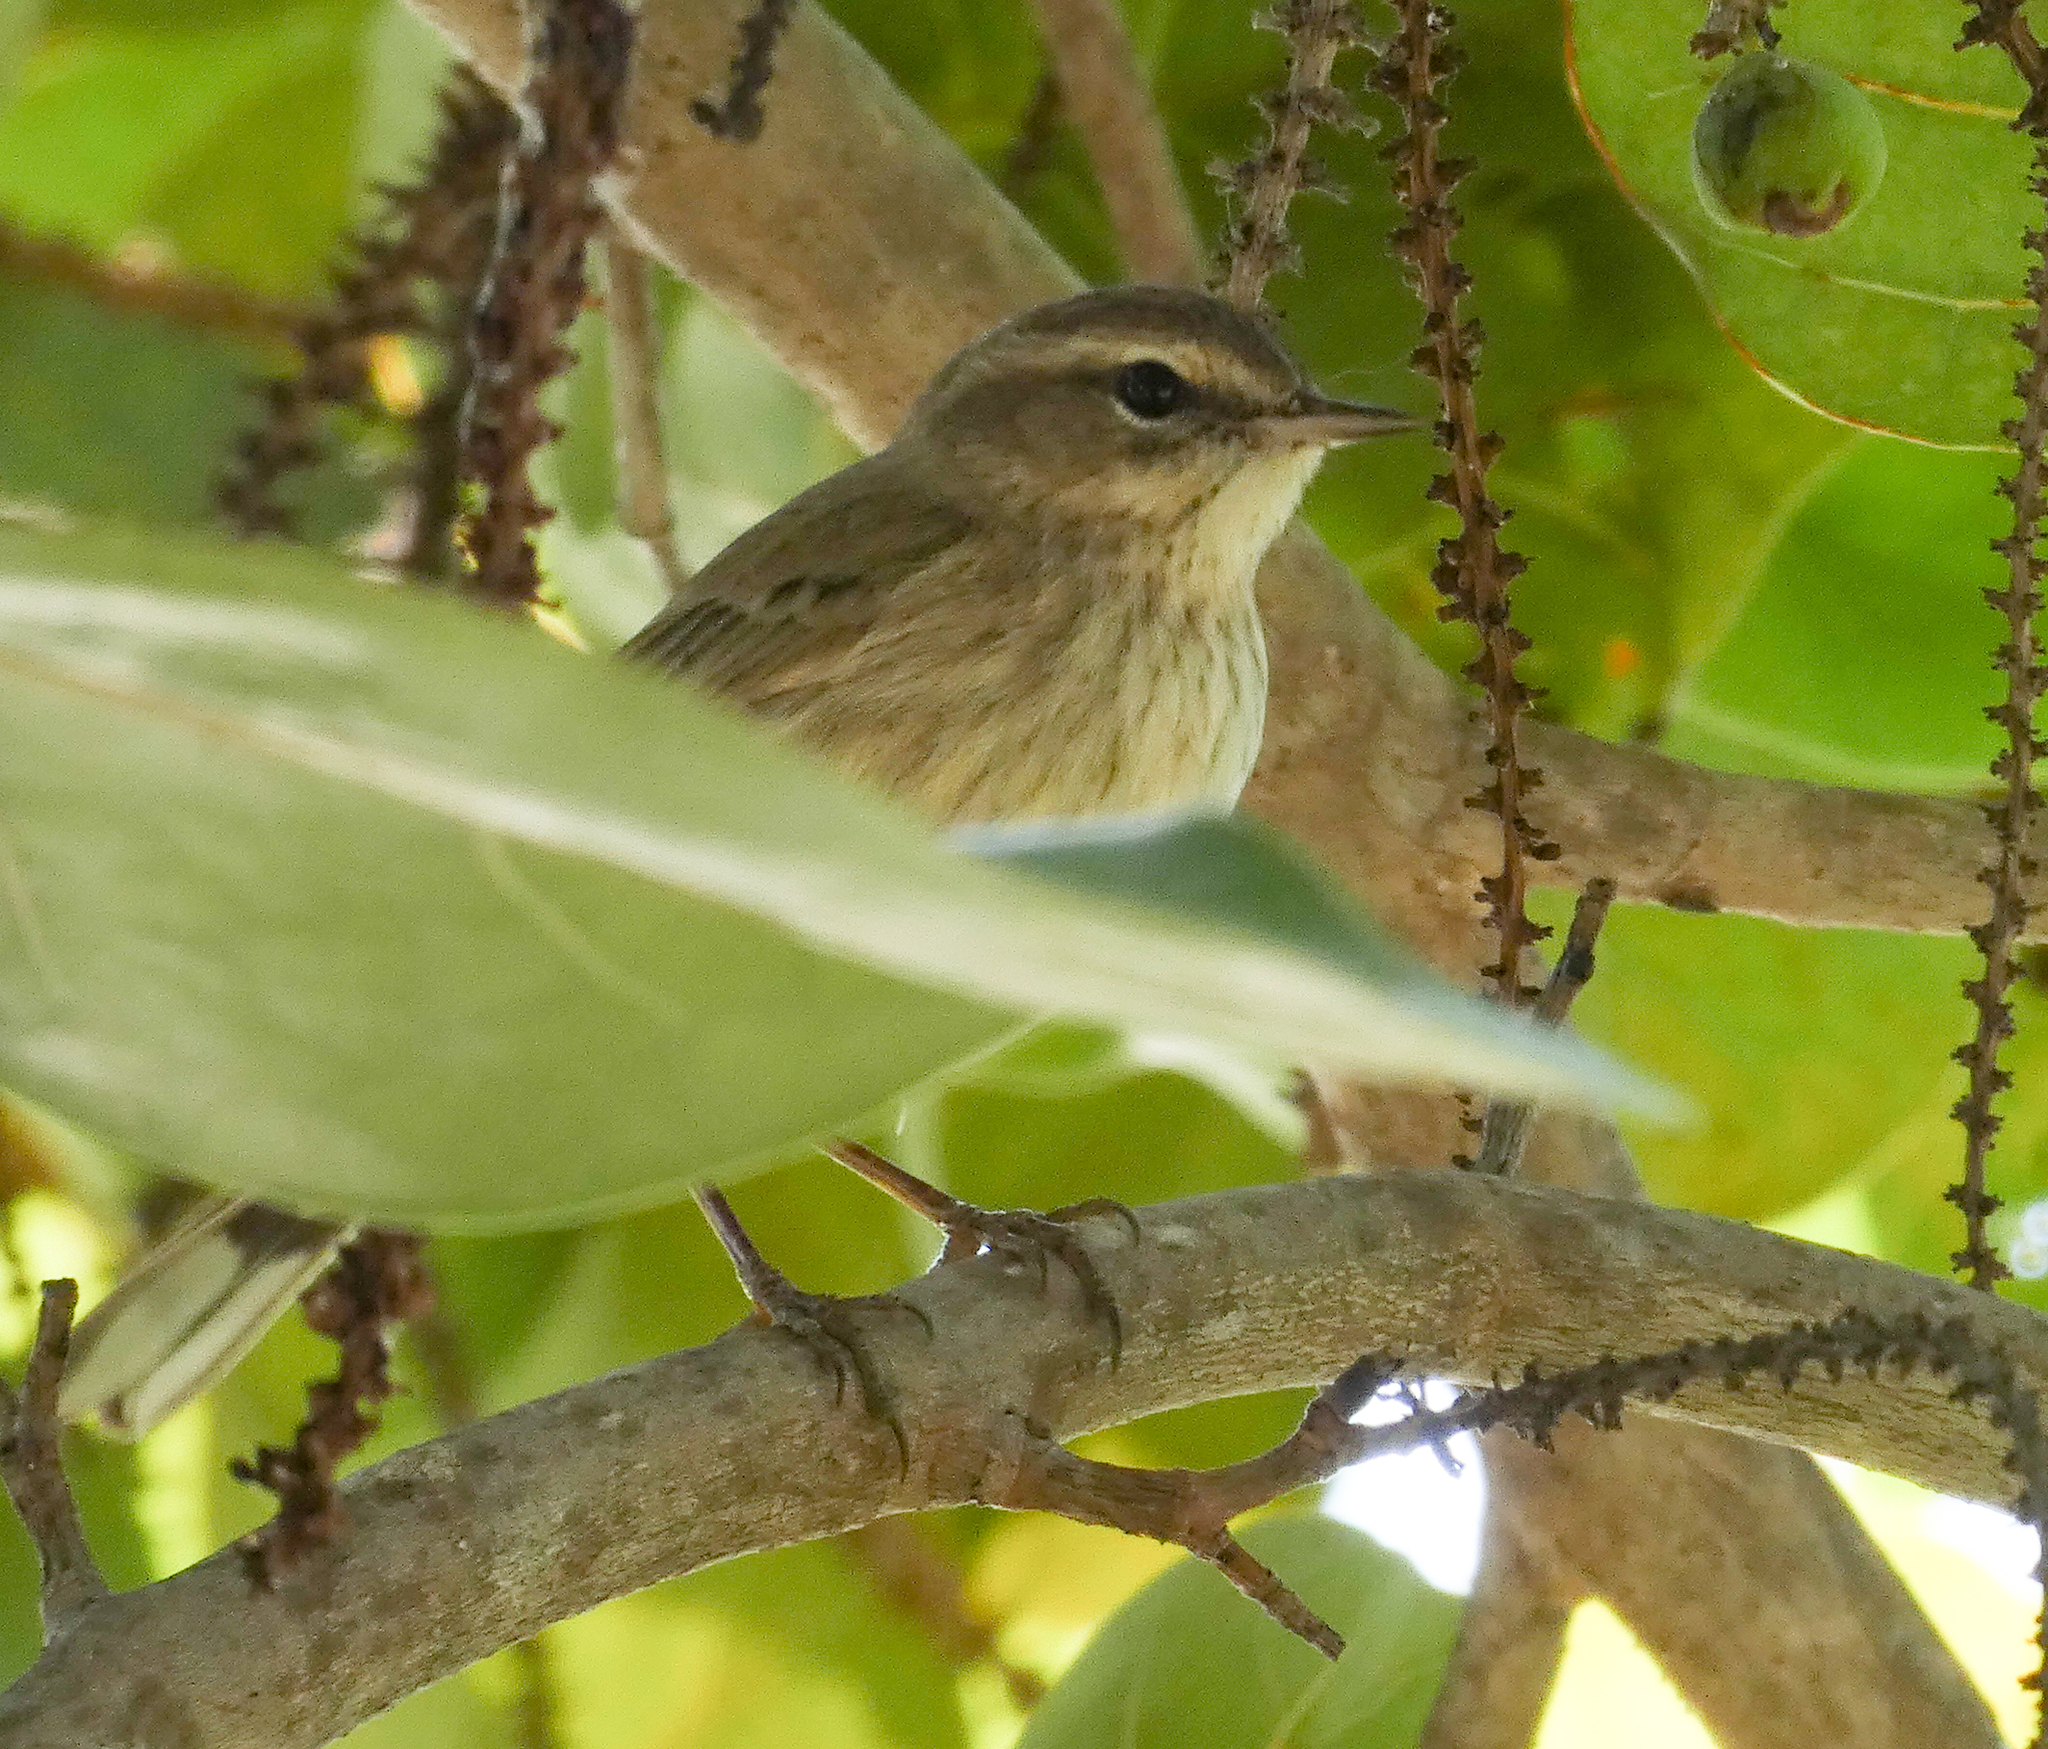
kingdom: Animalia
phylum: Chordata
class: Aves
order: Passeriformes
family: Parulidae
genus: Setophaga
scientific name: Setophaga palmarum
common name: Palm warbler
